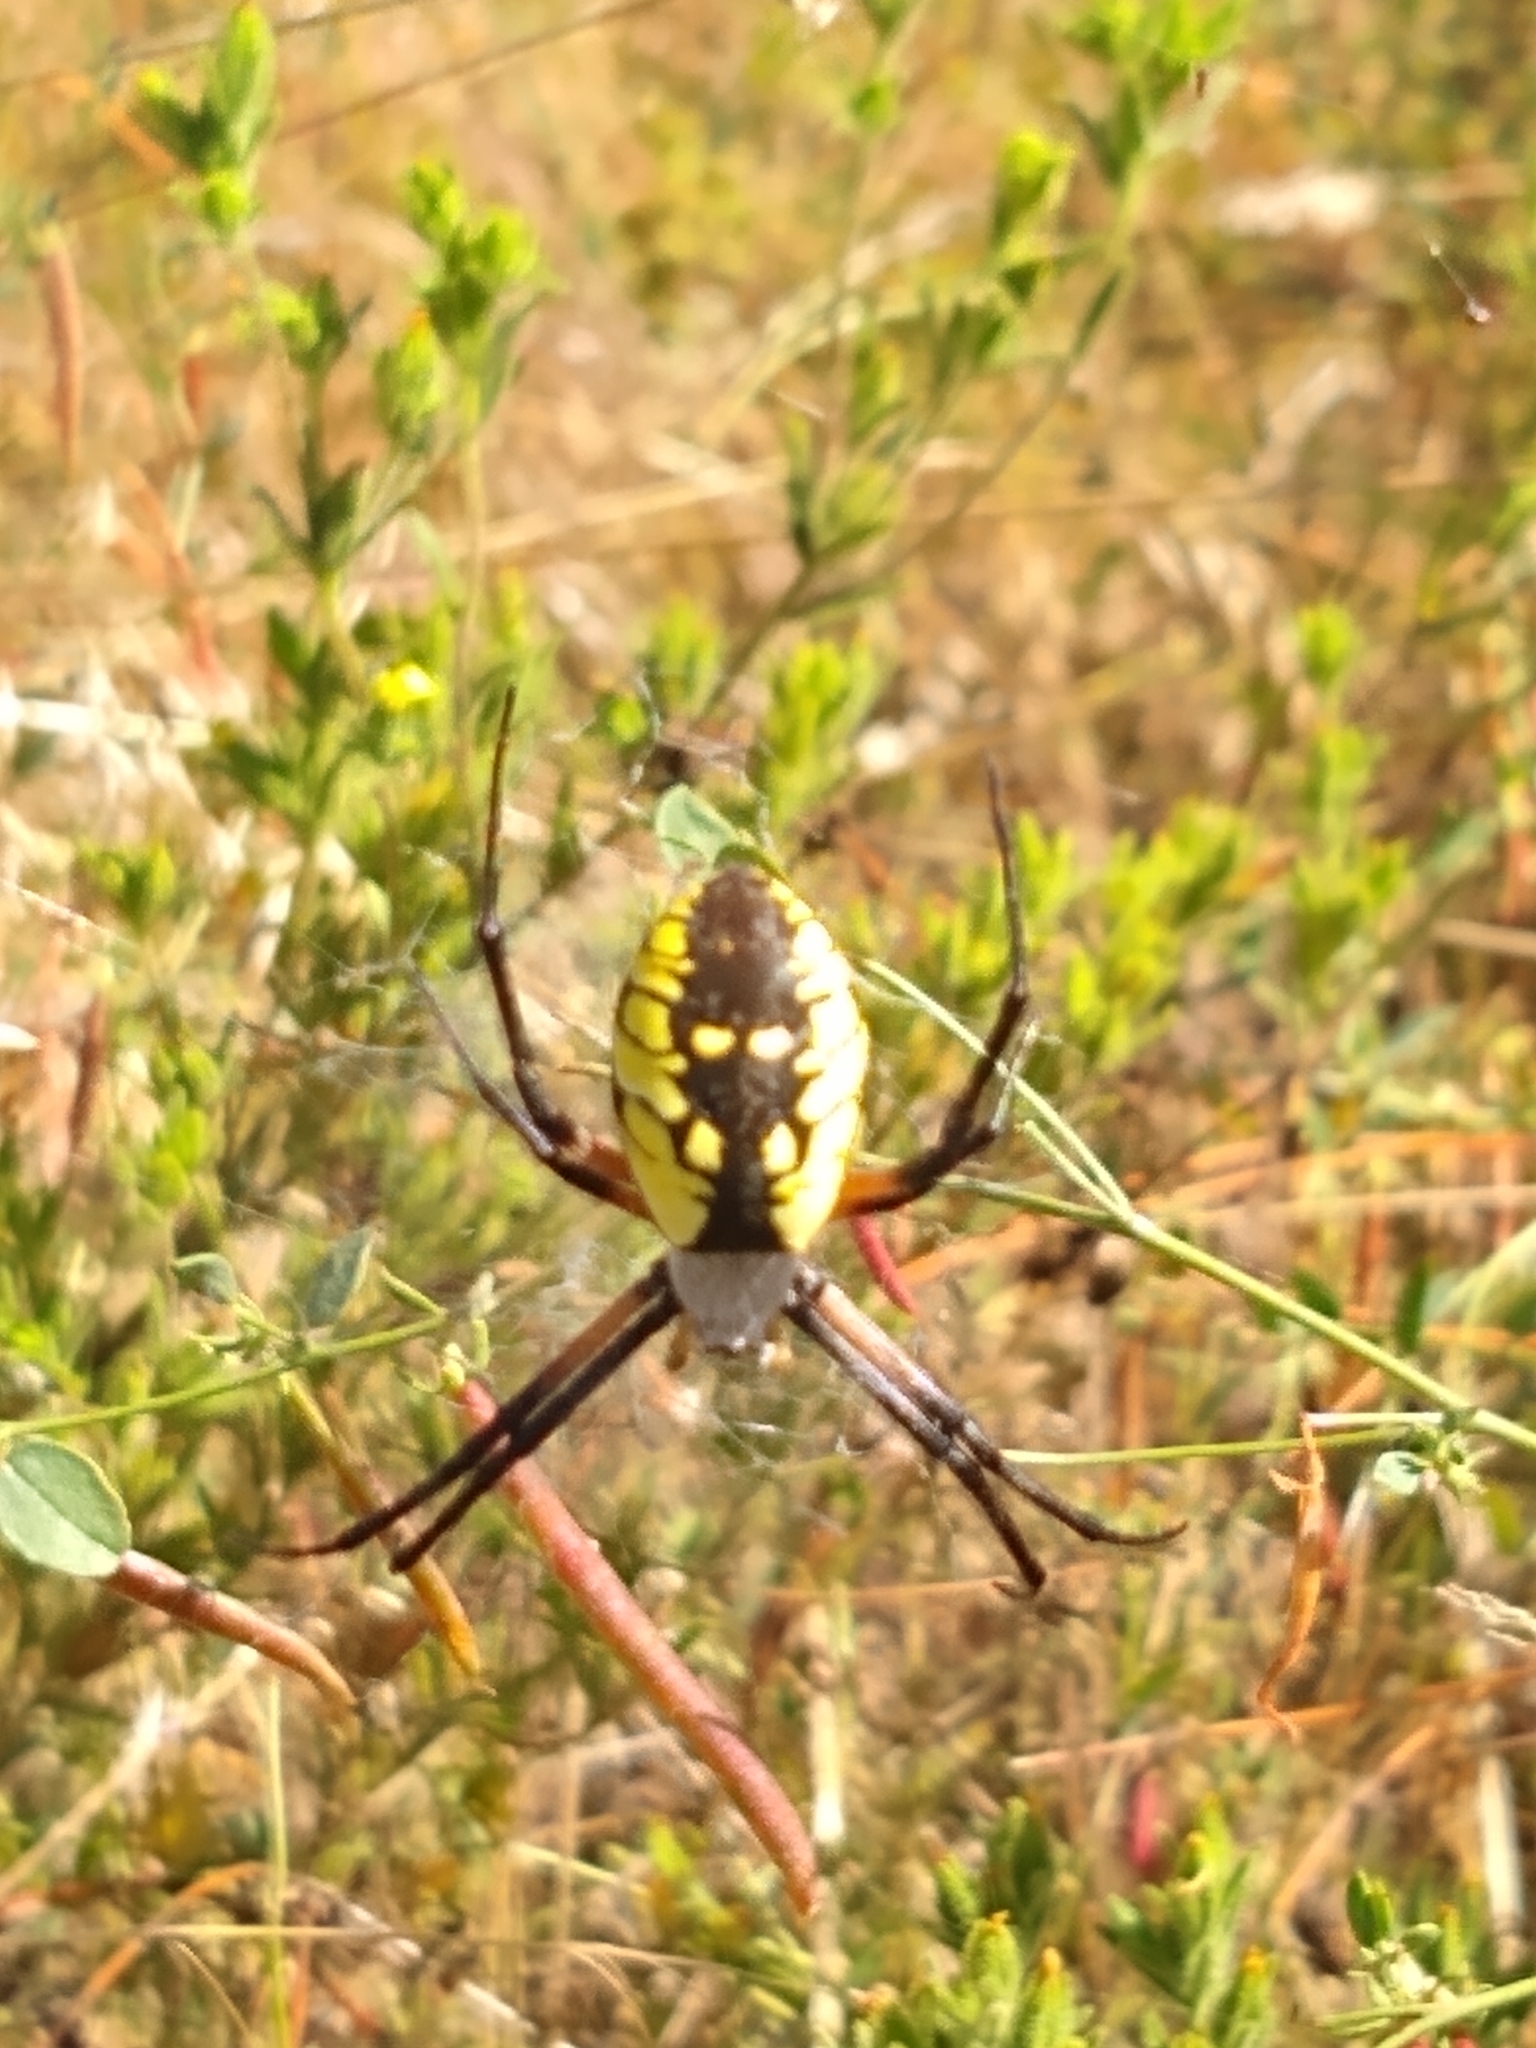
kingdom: Animalia
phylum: Arthropoda
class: Arachnida
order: Araneae
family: Araneidae
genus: Argiope
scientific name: Argiope aurantia
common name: Orb weavers
